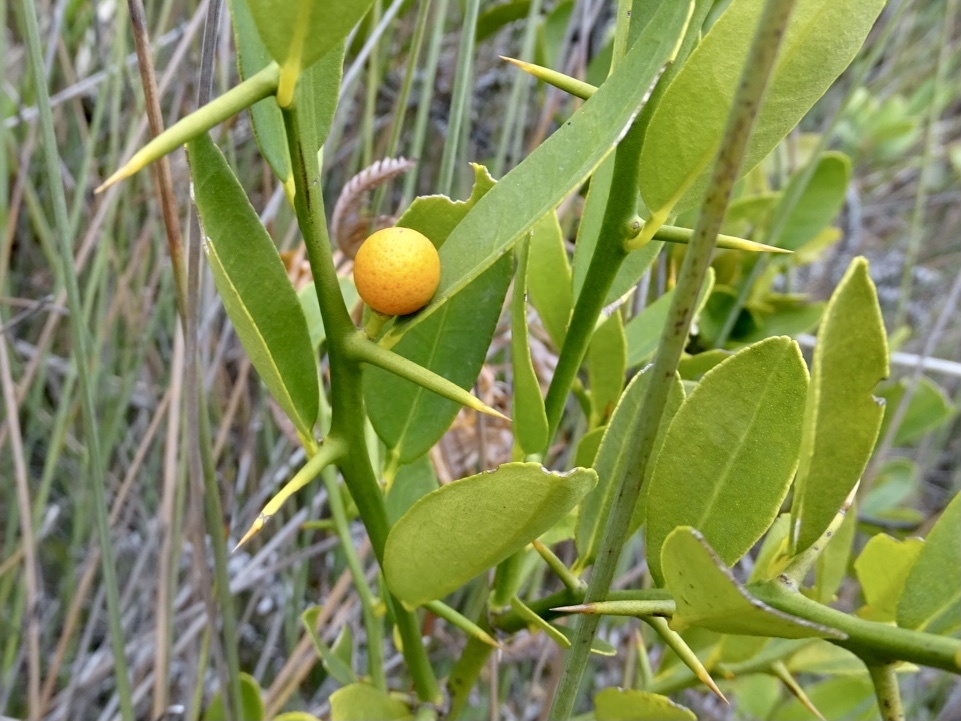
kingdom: Plantae
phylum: Tracheophyta
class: Magnoliopsida
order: Sapindales
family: Rutaceae
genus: Citrus
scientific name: Citrus japonica
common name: Kumquat
